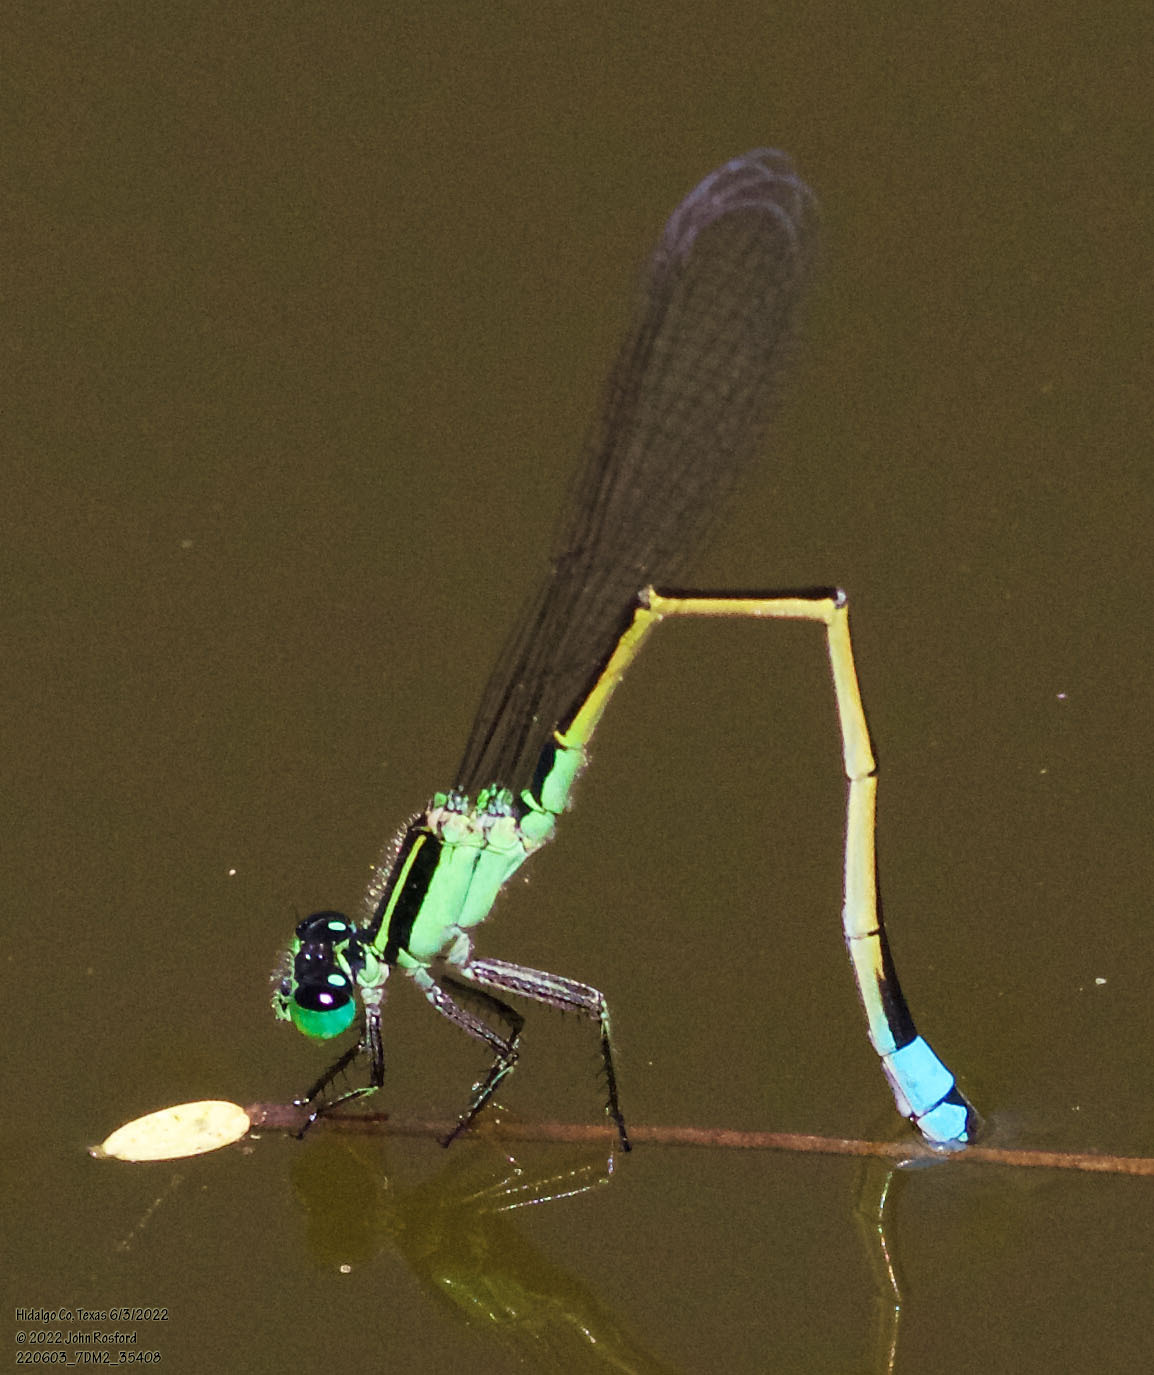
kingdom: Animalia
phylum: Arthropoda
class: Insecta
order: Odonata
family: Coenagrionidae
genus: Ischnura
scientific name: Ischnura ramburii
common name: Rambur's forktail
